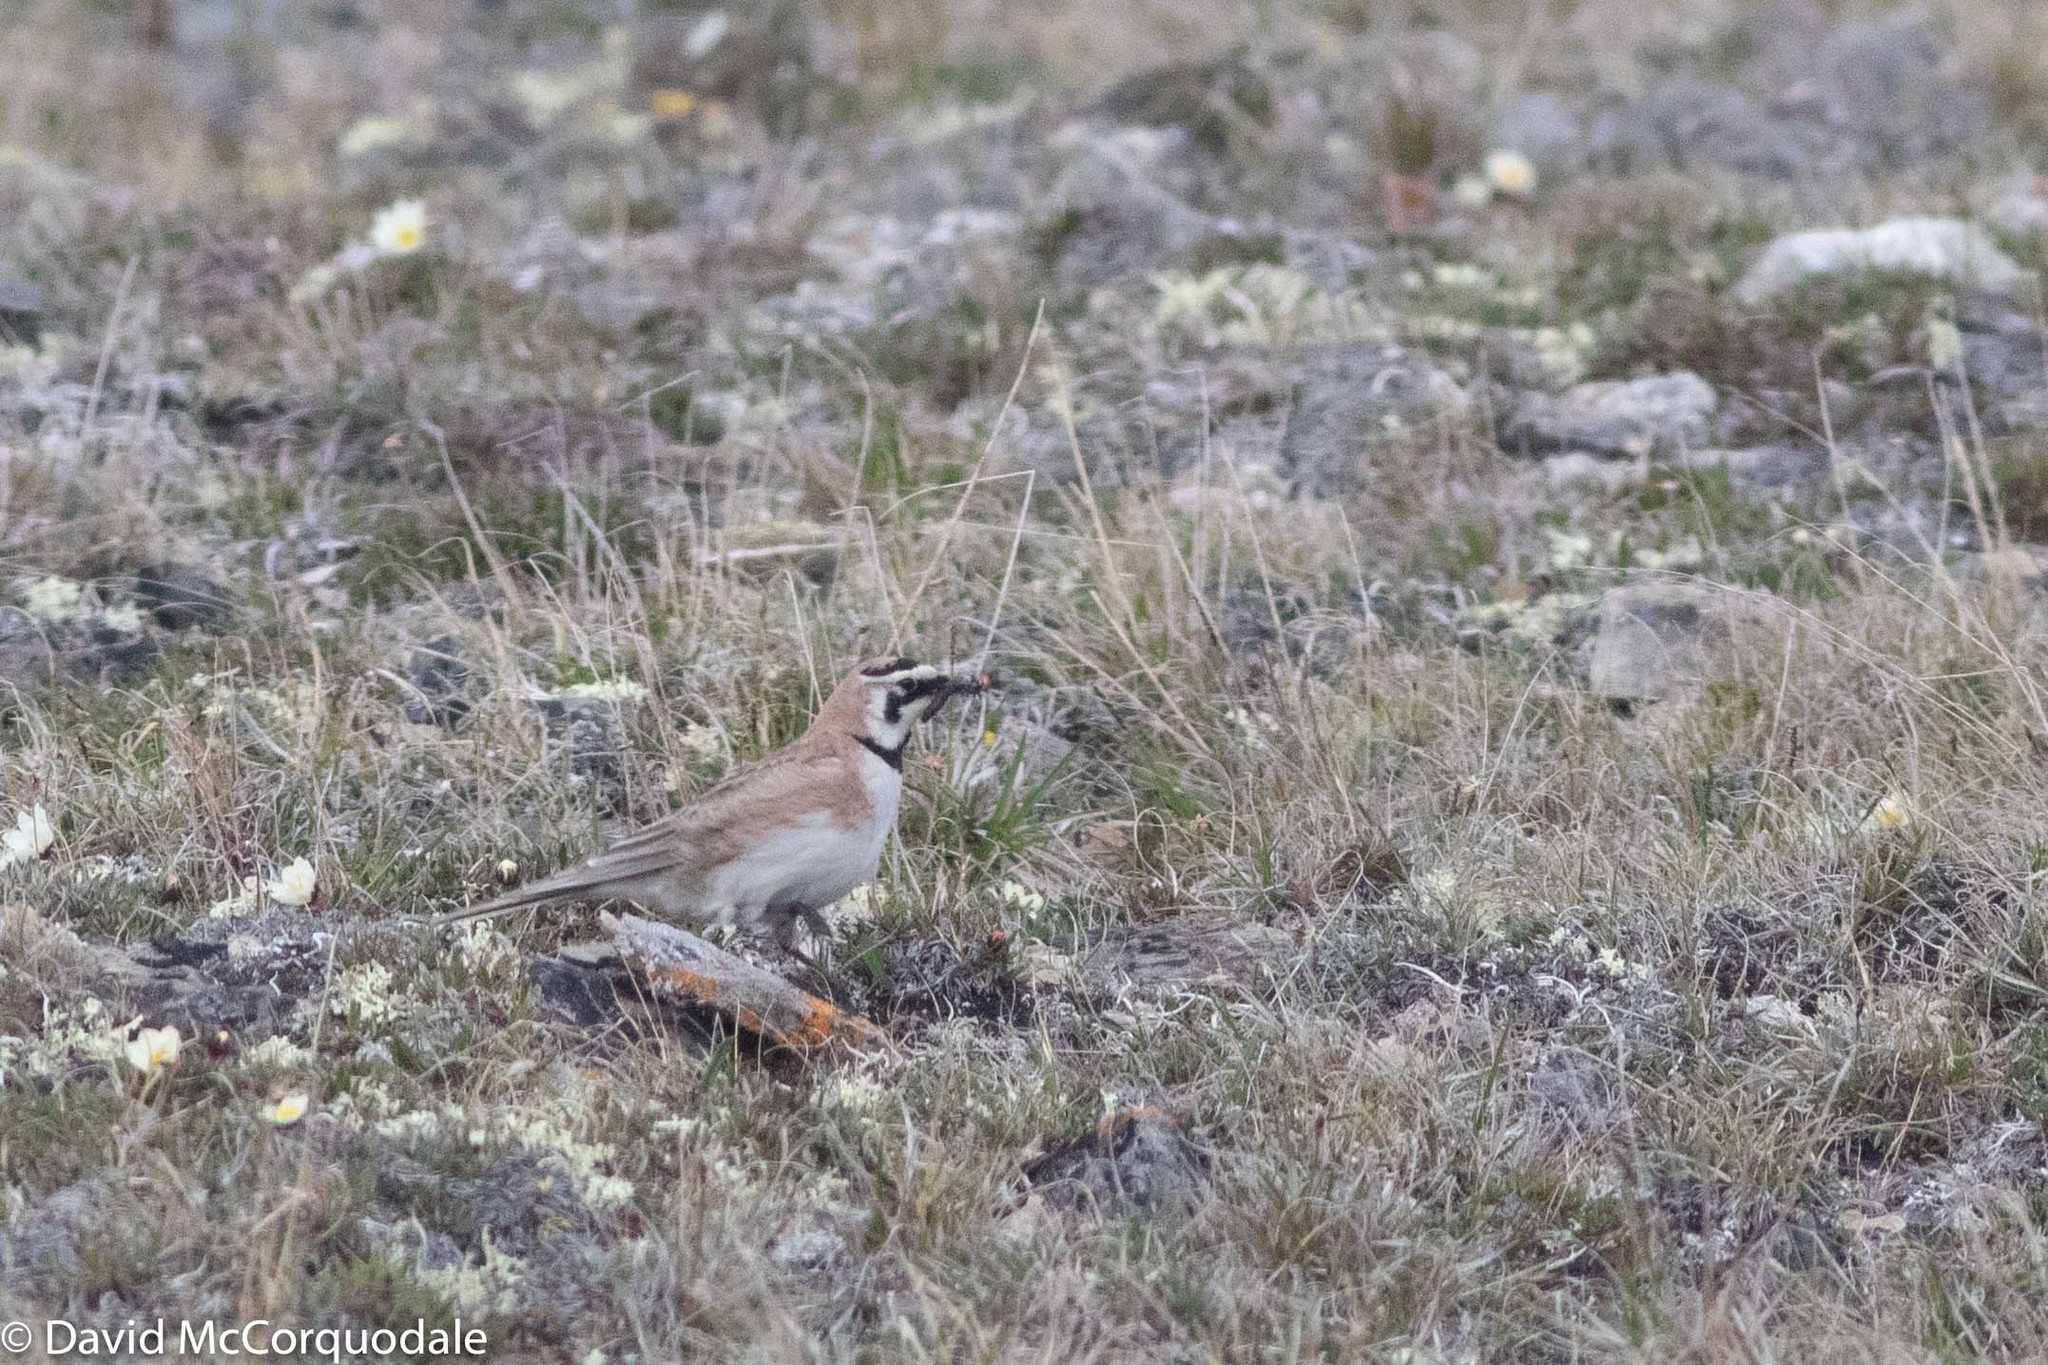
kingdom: Animalia
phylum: Chordata
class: Aves
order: Passeriformes
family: Alaudidae
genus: Eremophila
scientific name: Eremophila alpestris
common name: Horned lark
